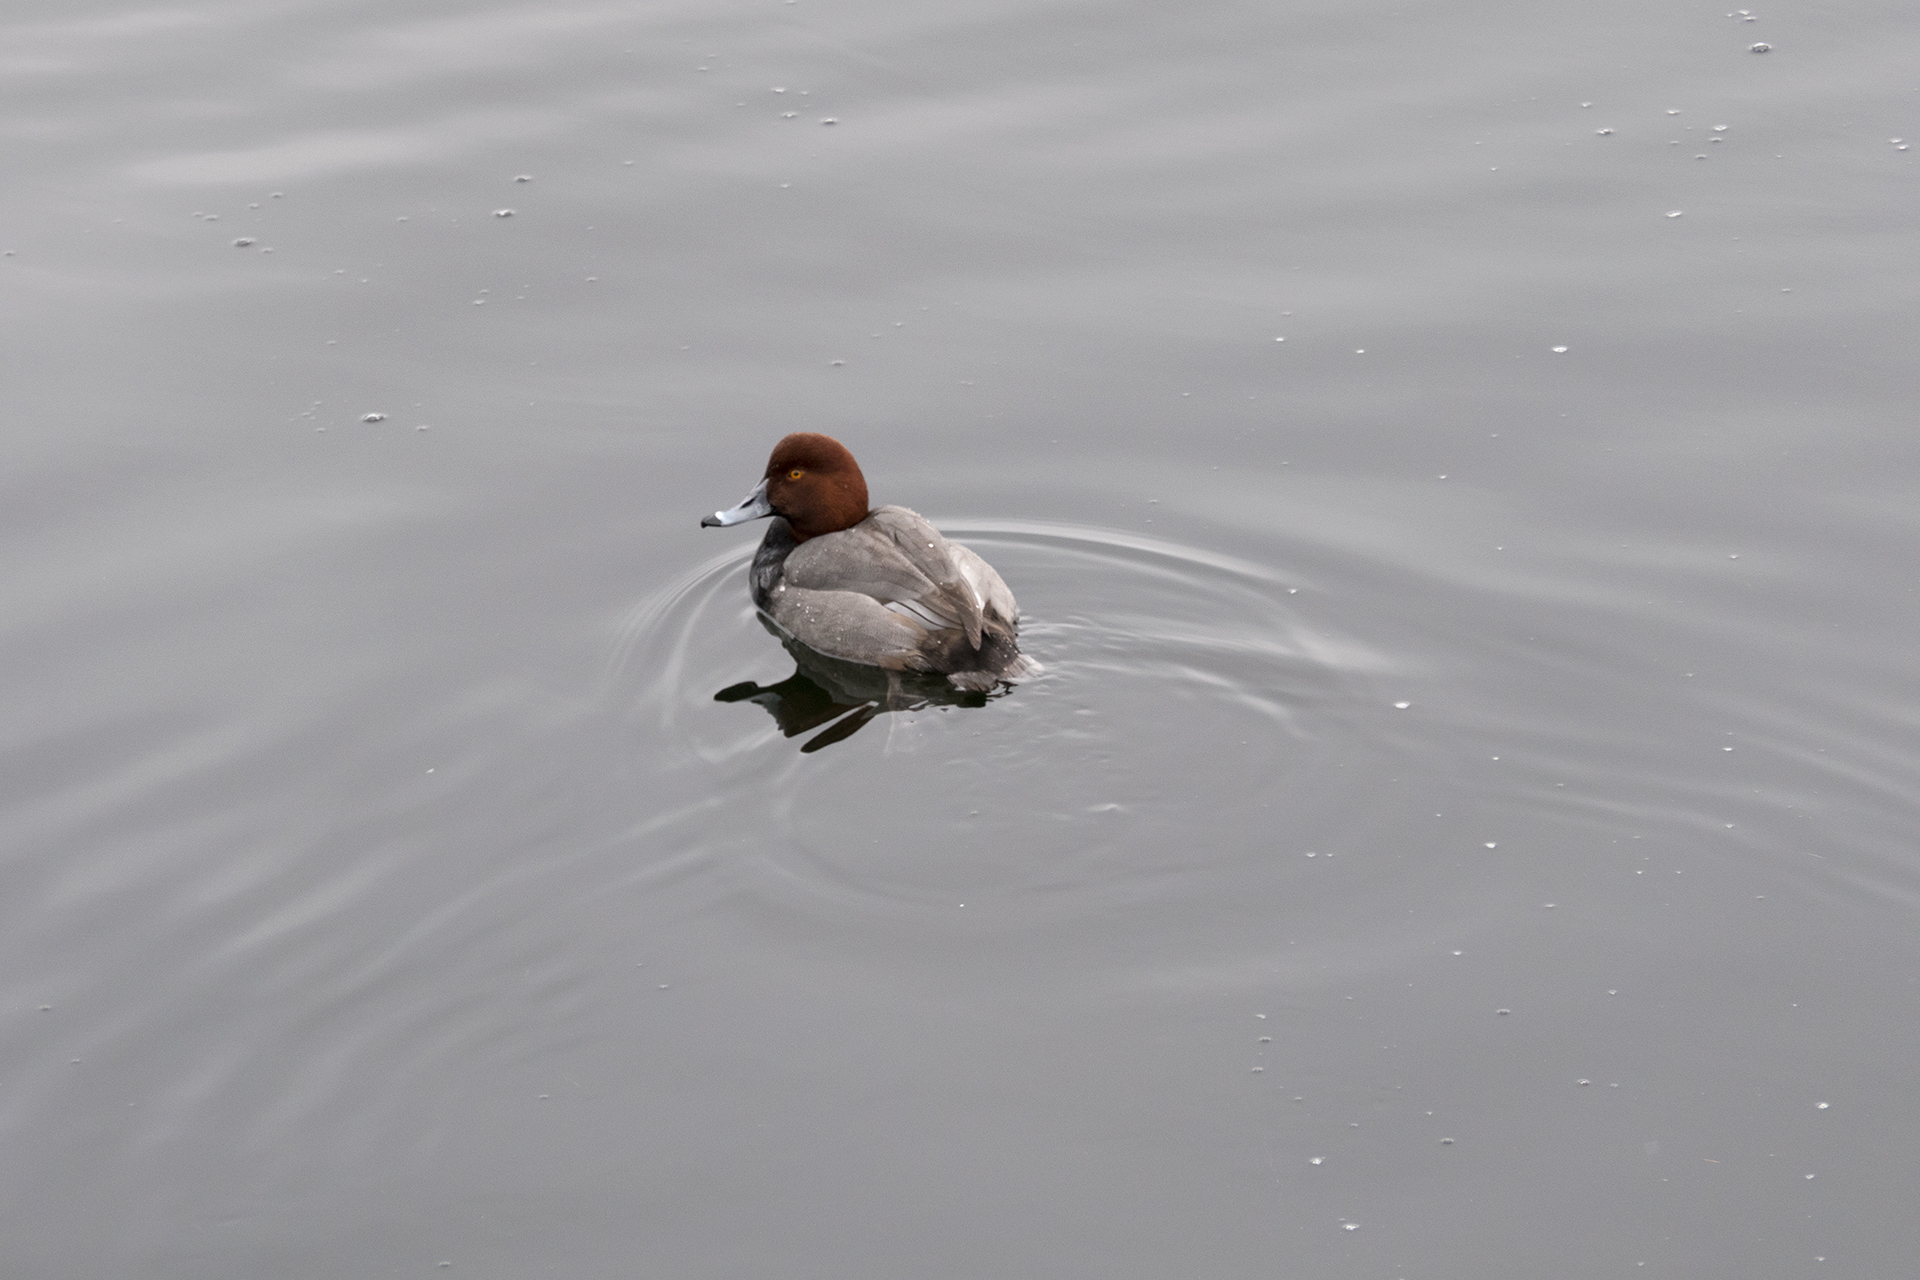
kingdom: Animalia
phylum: Chordata
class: Aves
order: Anseriformes
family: Anatidae
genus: Aythya
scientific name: Aythya americana
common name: Redhead
